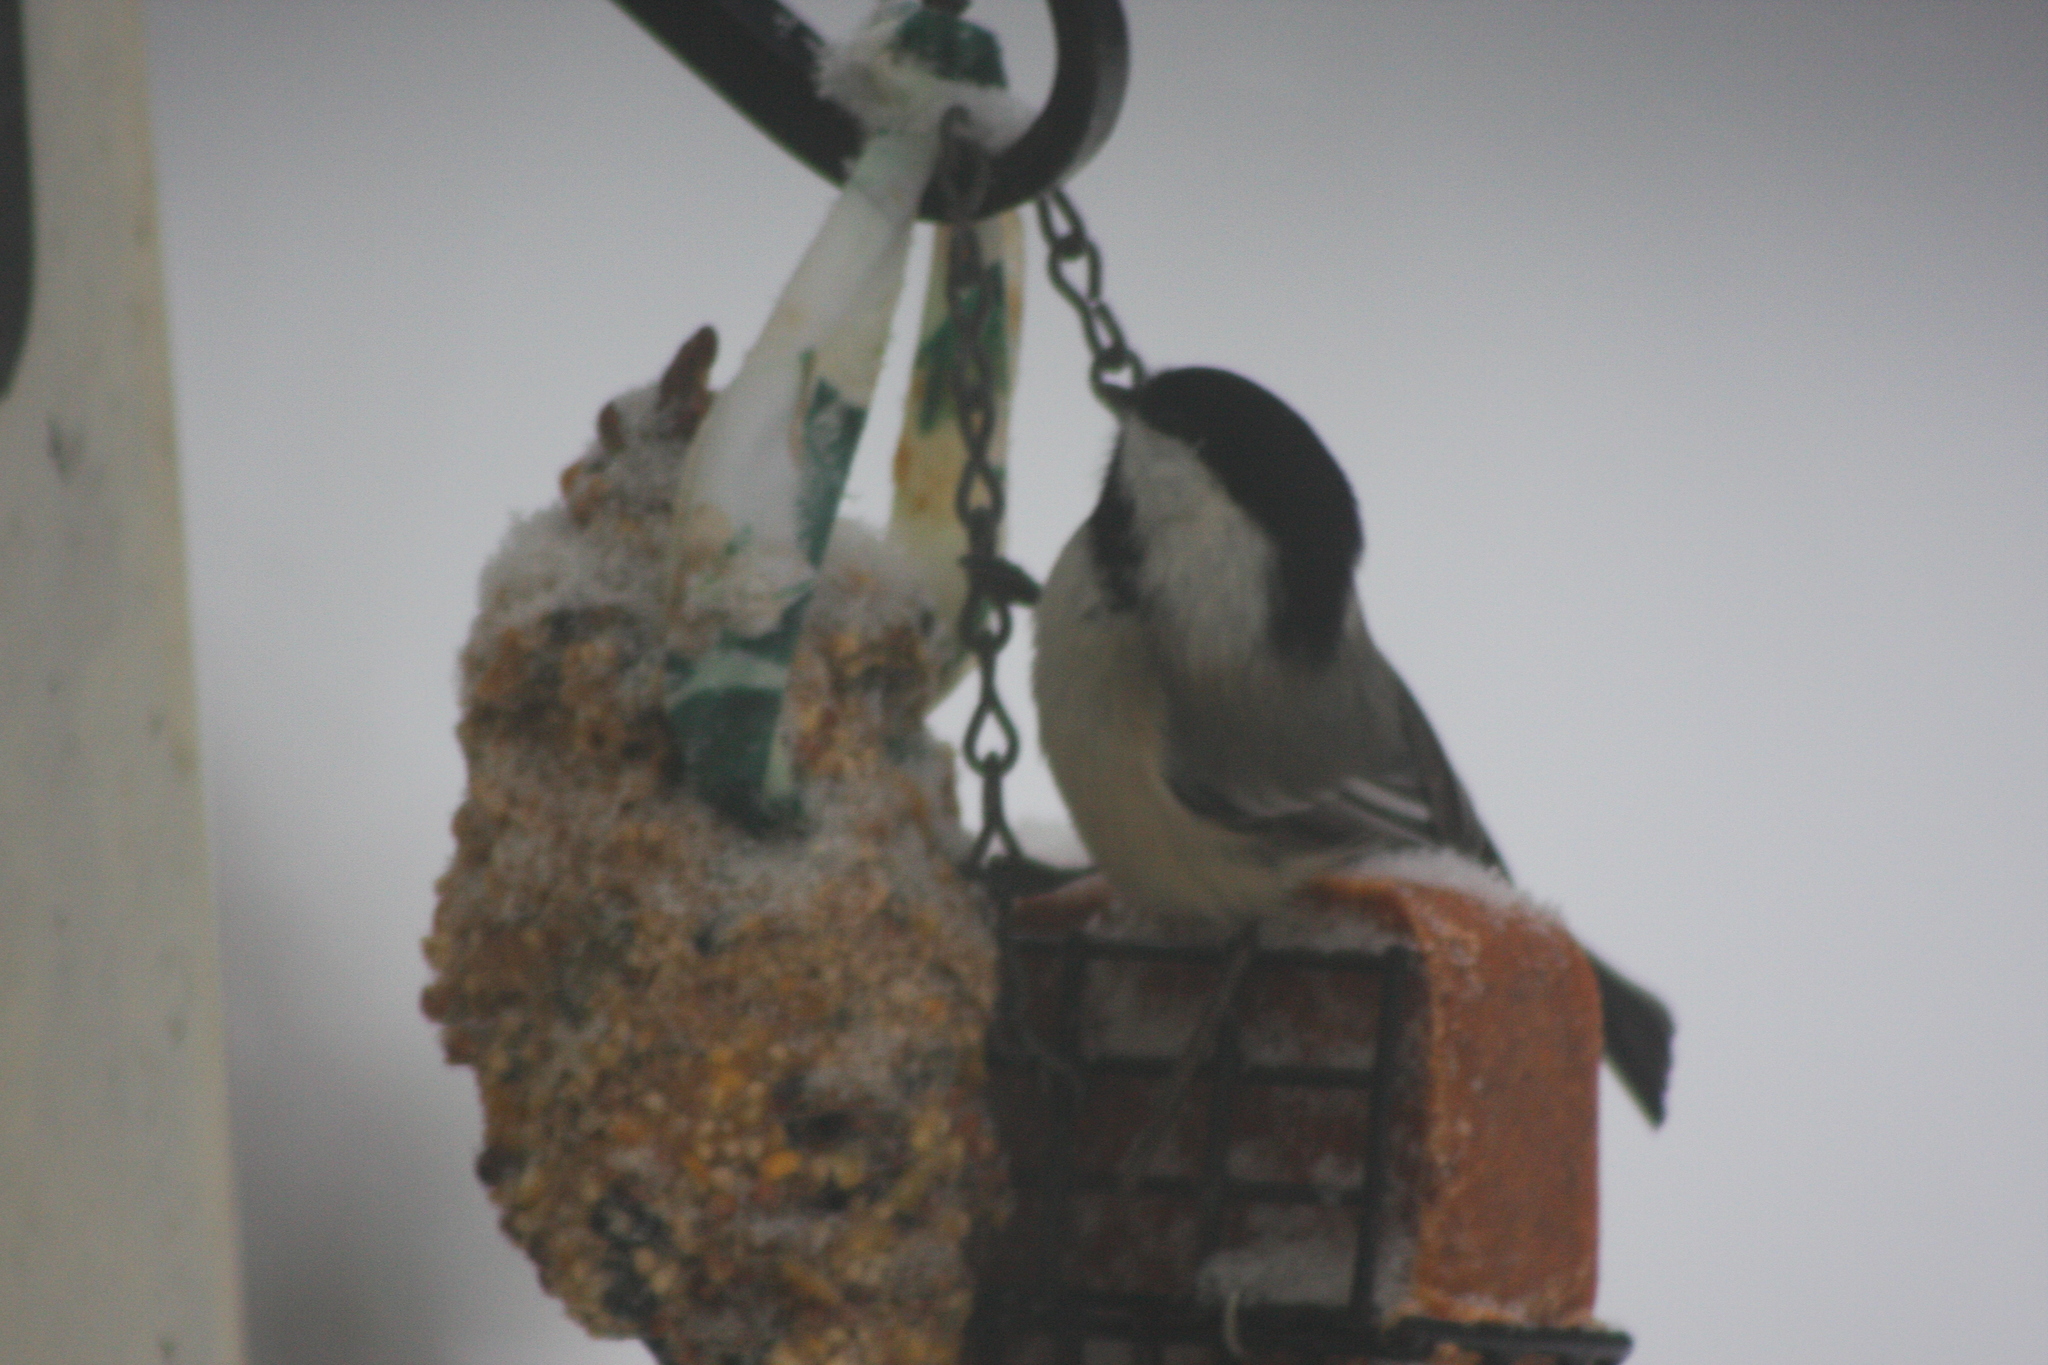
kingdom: Animalia
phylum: Chordata
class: Aves
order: Passeriformes
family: Paridae
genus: Poecile
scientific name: Poecile atricapillus
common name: Black-capped chickadee
